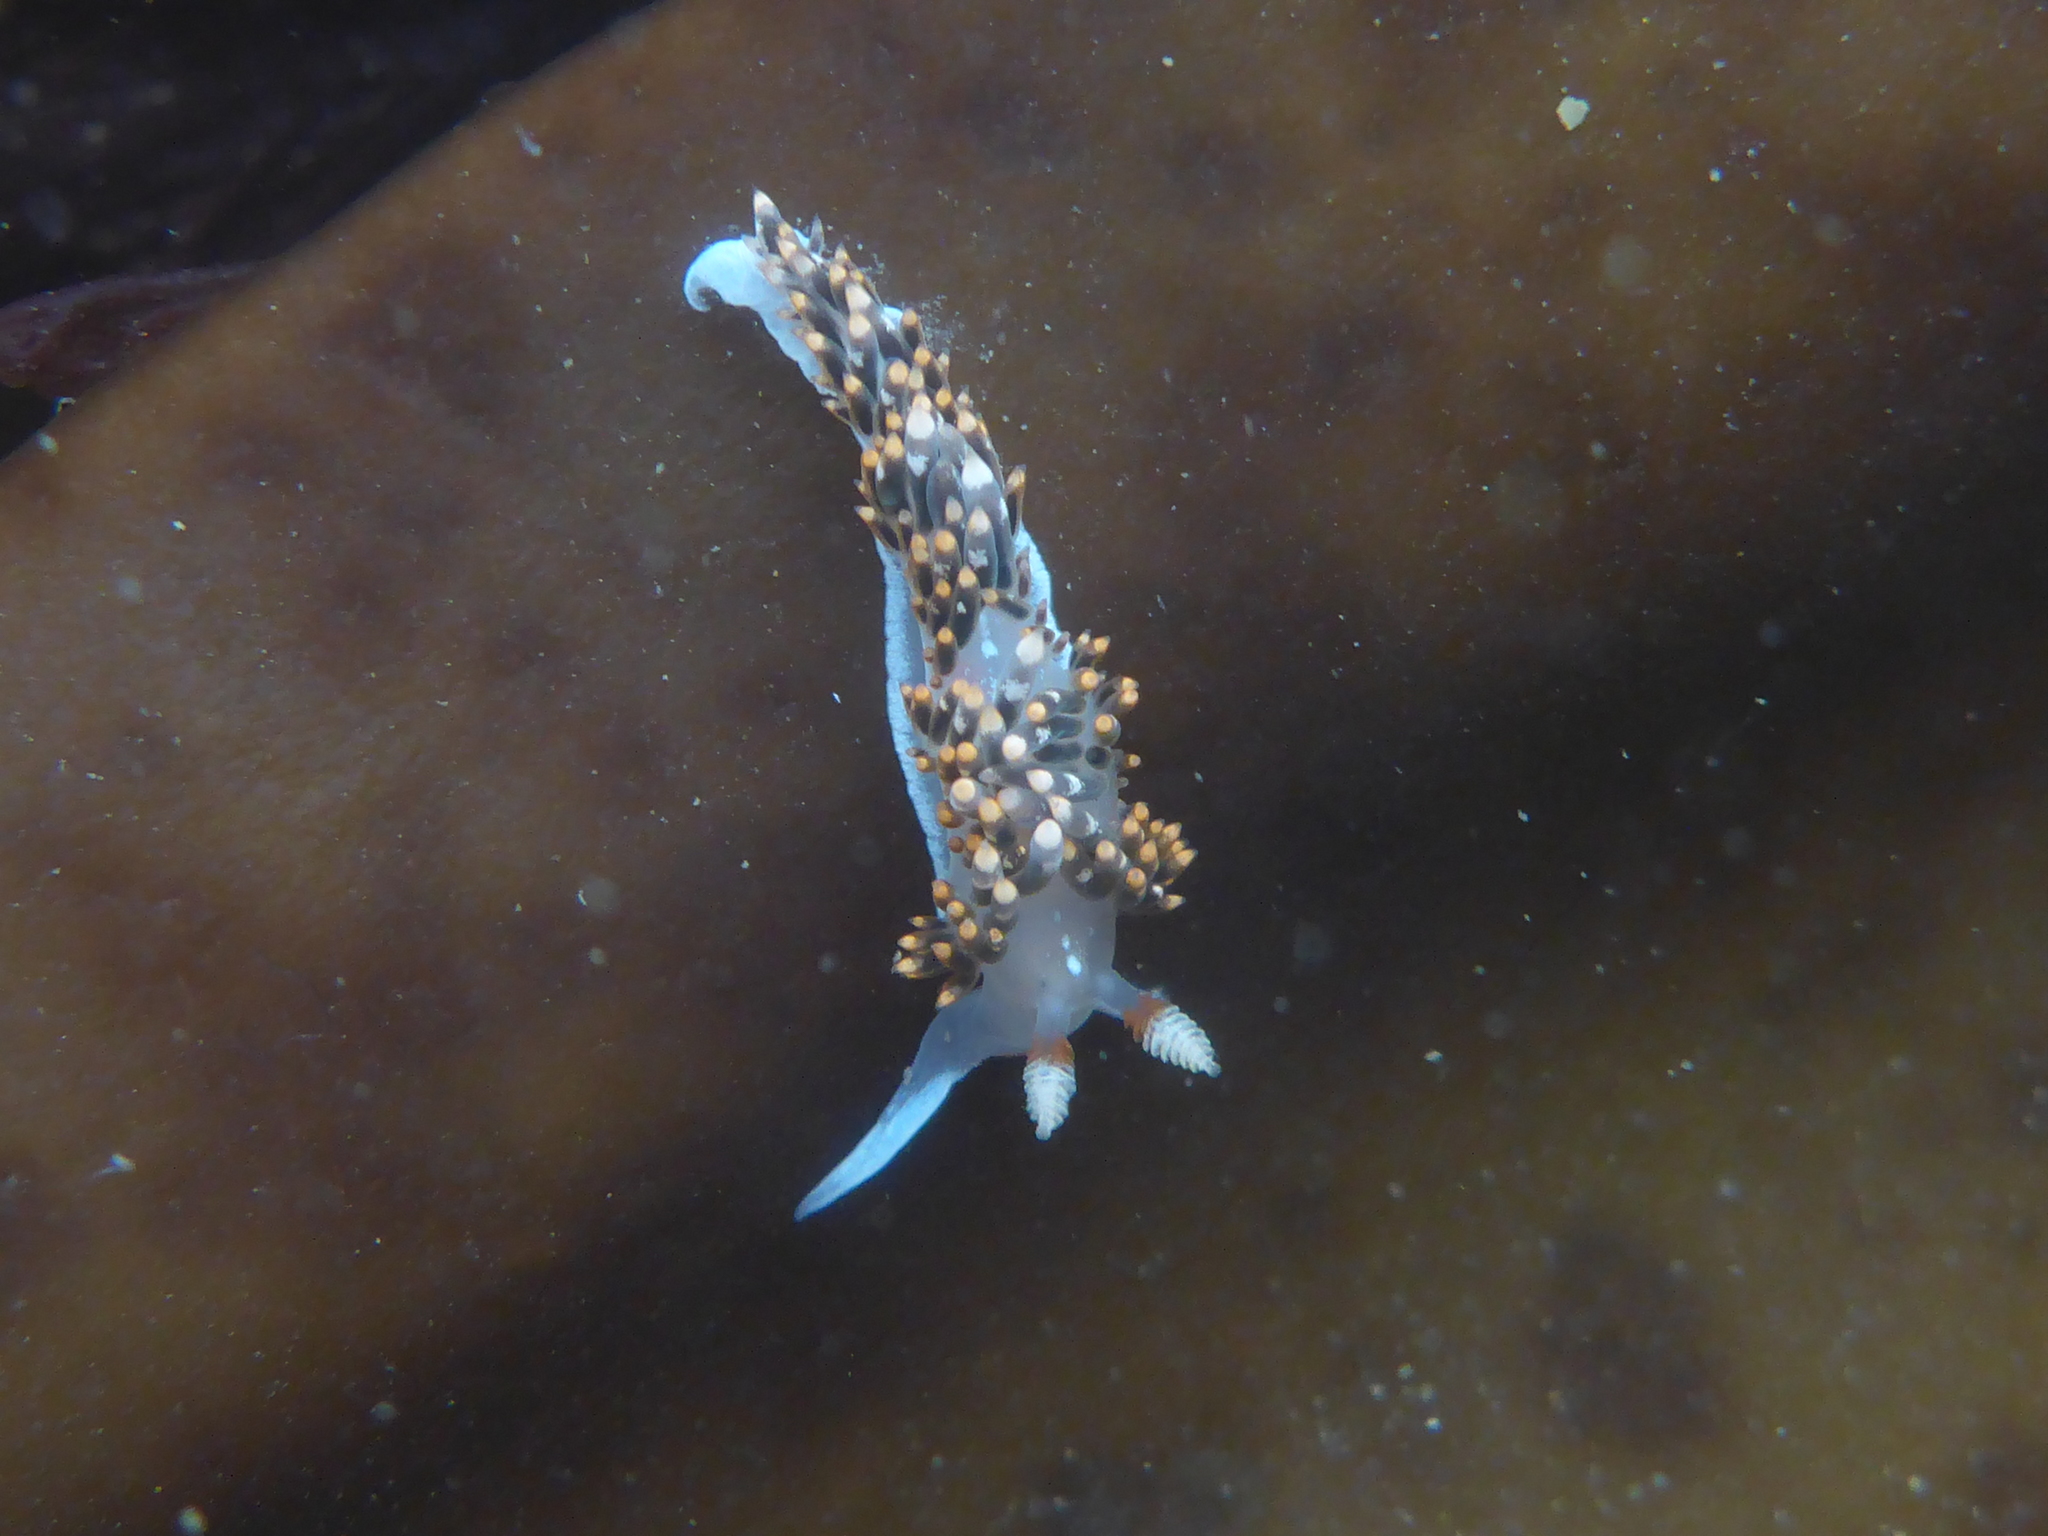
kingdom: Animalia
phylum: Mollusca
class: Gastropoda
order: Nudibranchia
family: Facelinidae
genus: Phidiana
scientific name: Phidiana hiltoni
